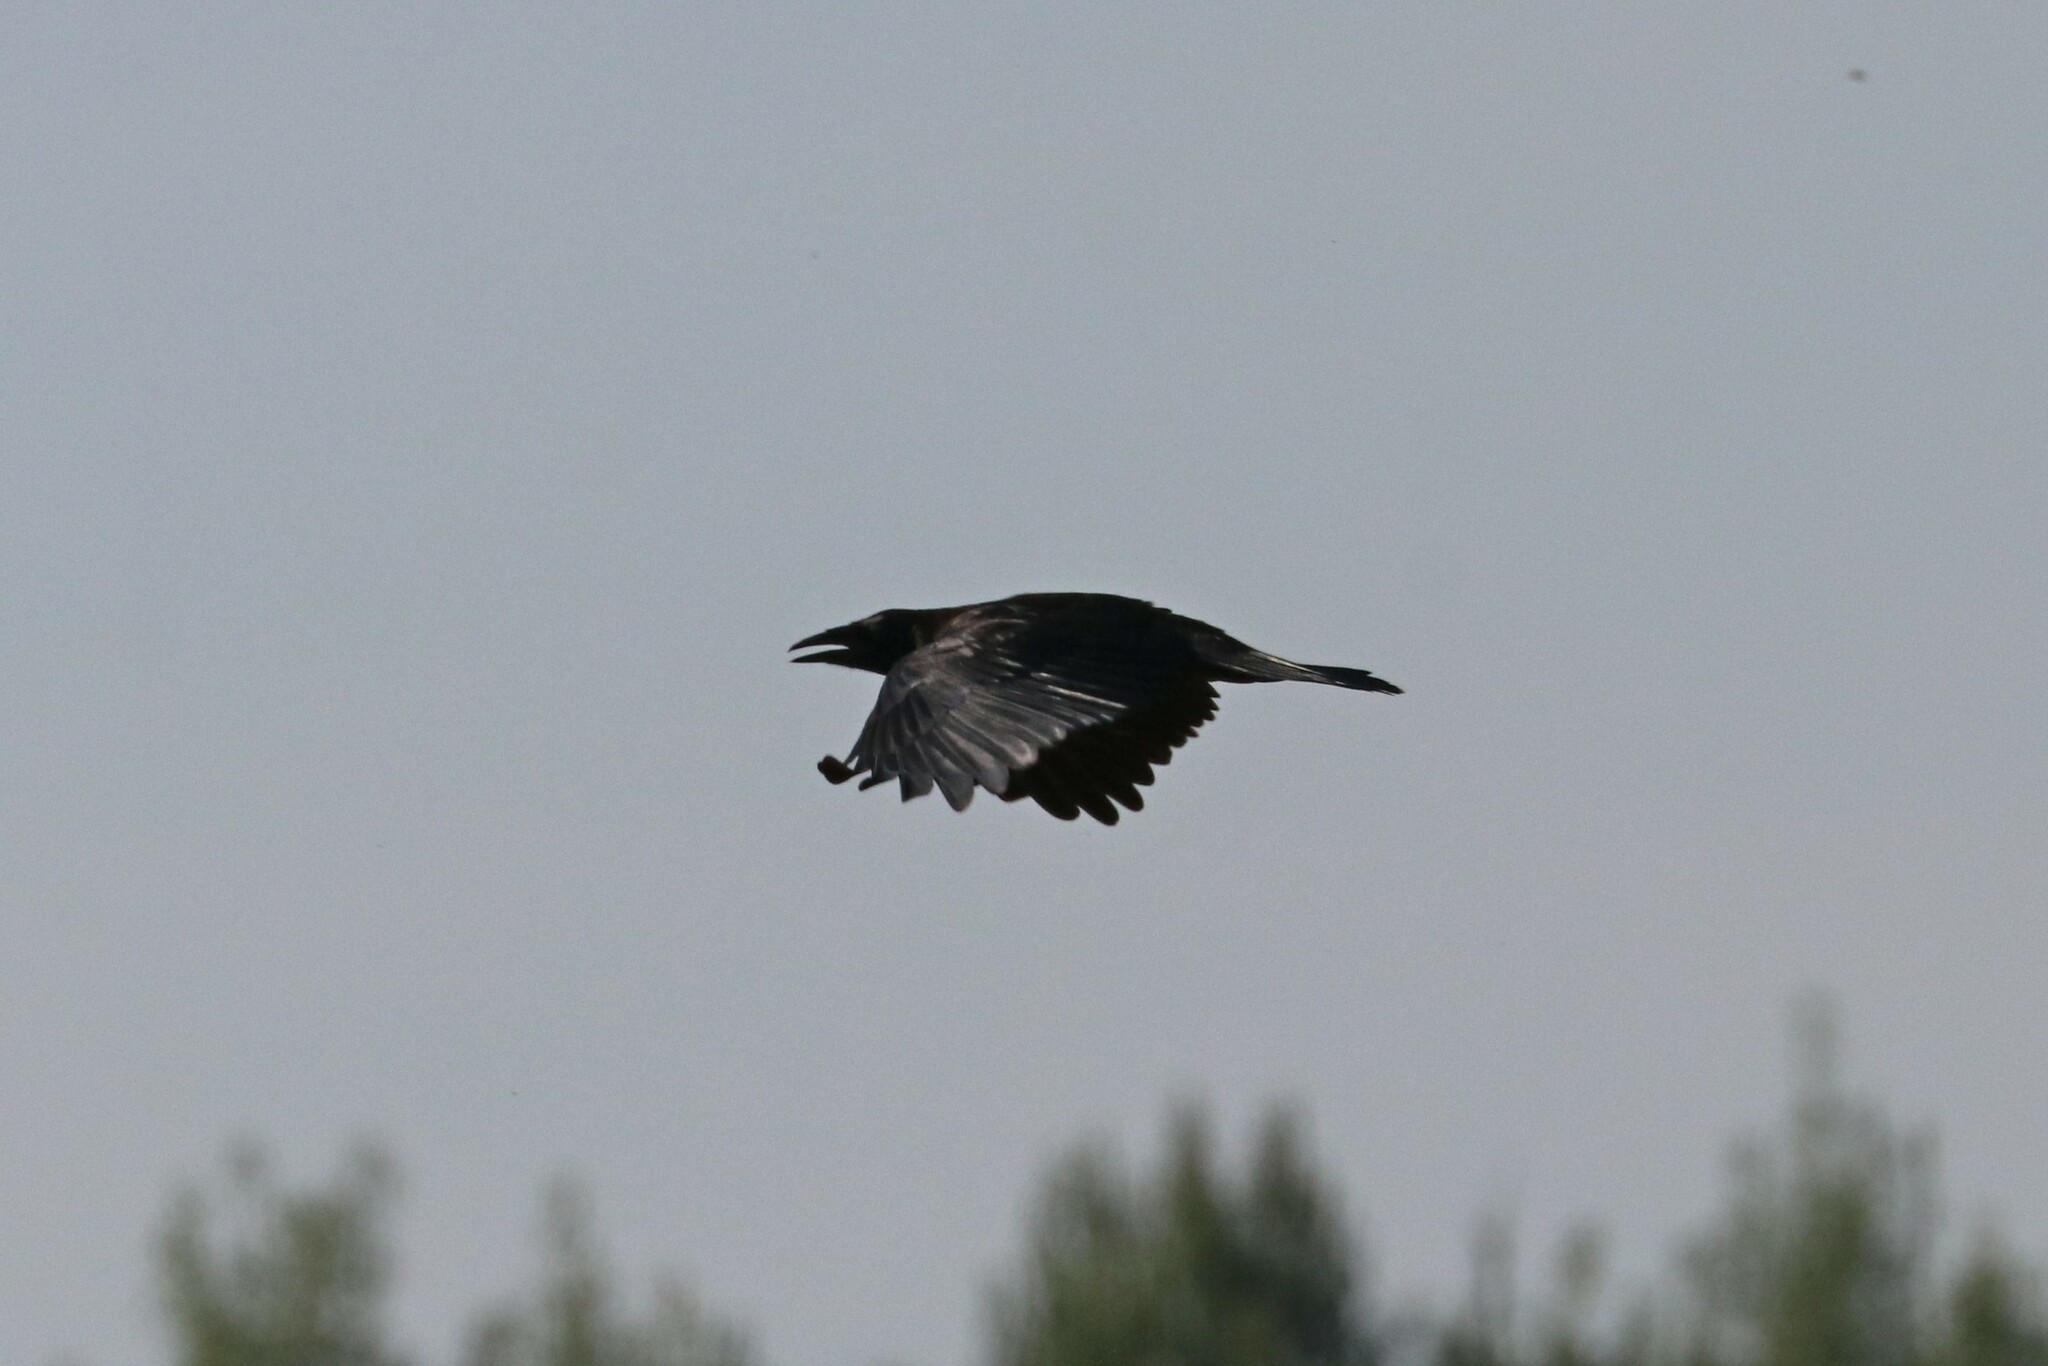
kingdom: Animalia
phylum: Chordata
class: Aves
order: Passeriformes
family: Corvidae
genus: Corvus
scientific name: Corvus corax
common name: Common raven
